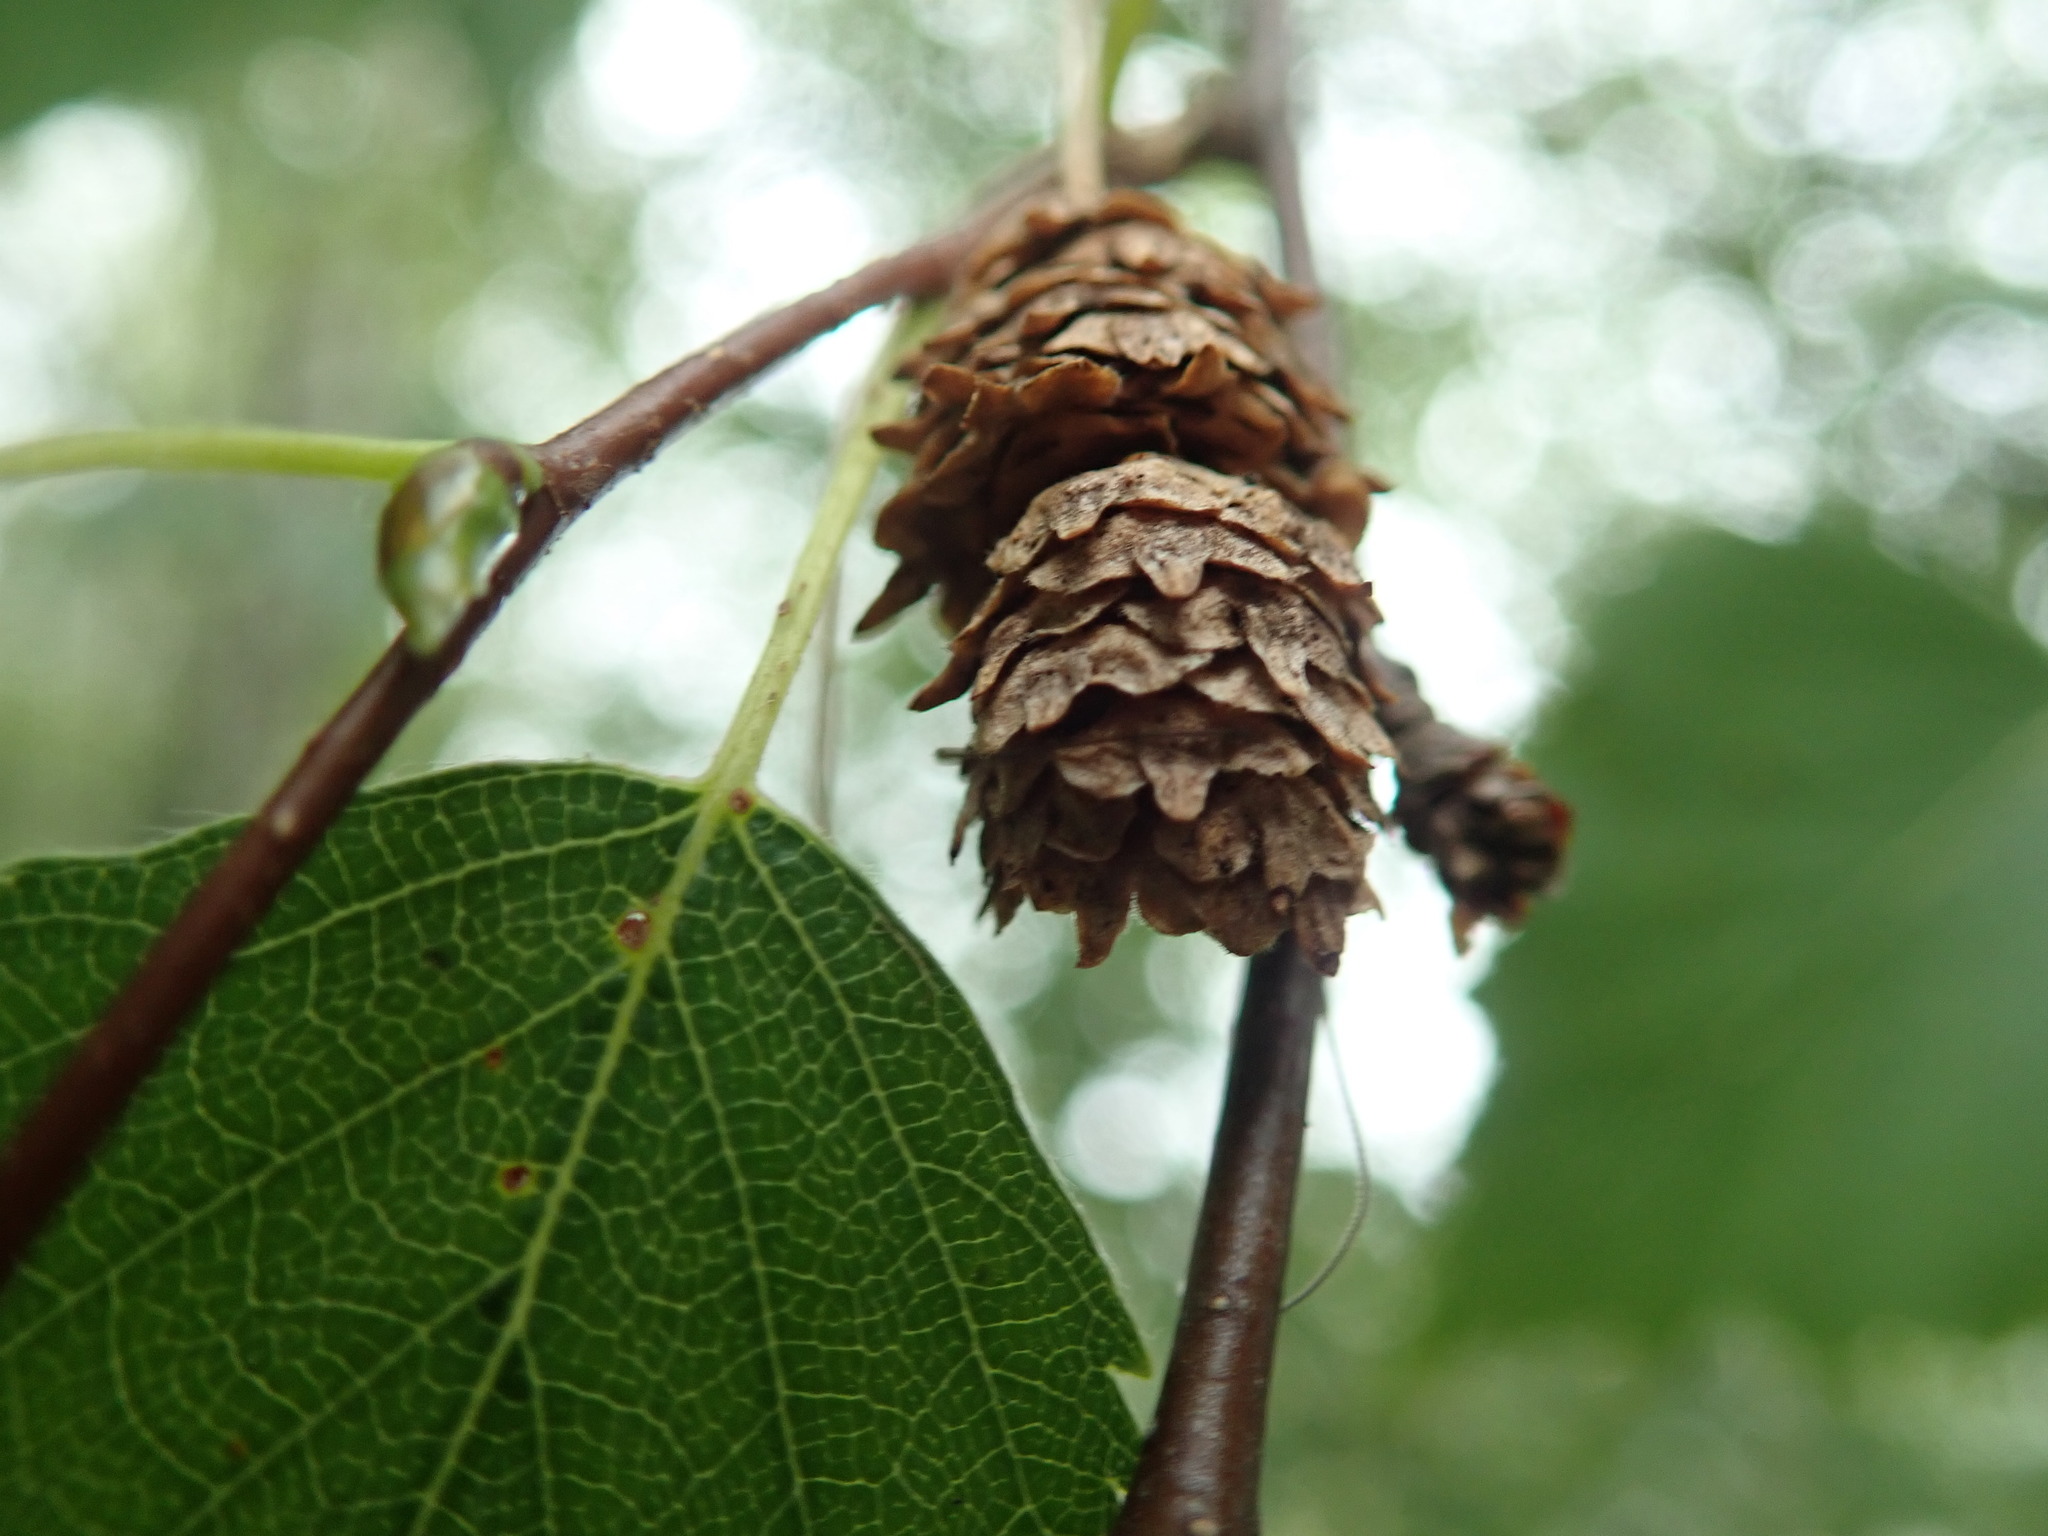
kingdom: Plantae
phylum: Tracheophyta
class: Magnoliopsida
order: Fagales
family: Betulaceae
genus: Betula
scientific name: Betula pendula
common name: Silver birch
